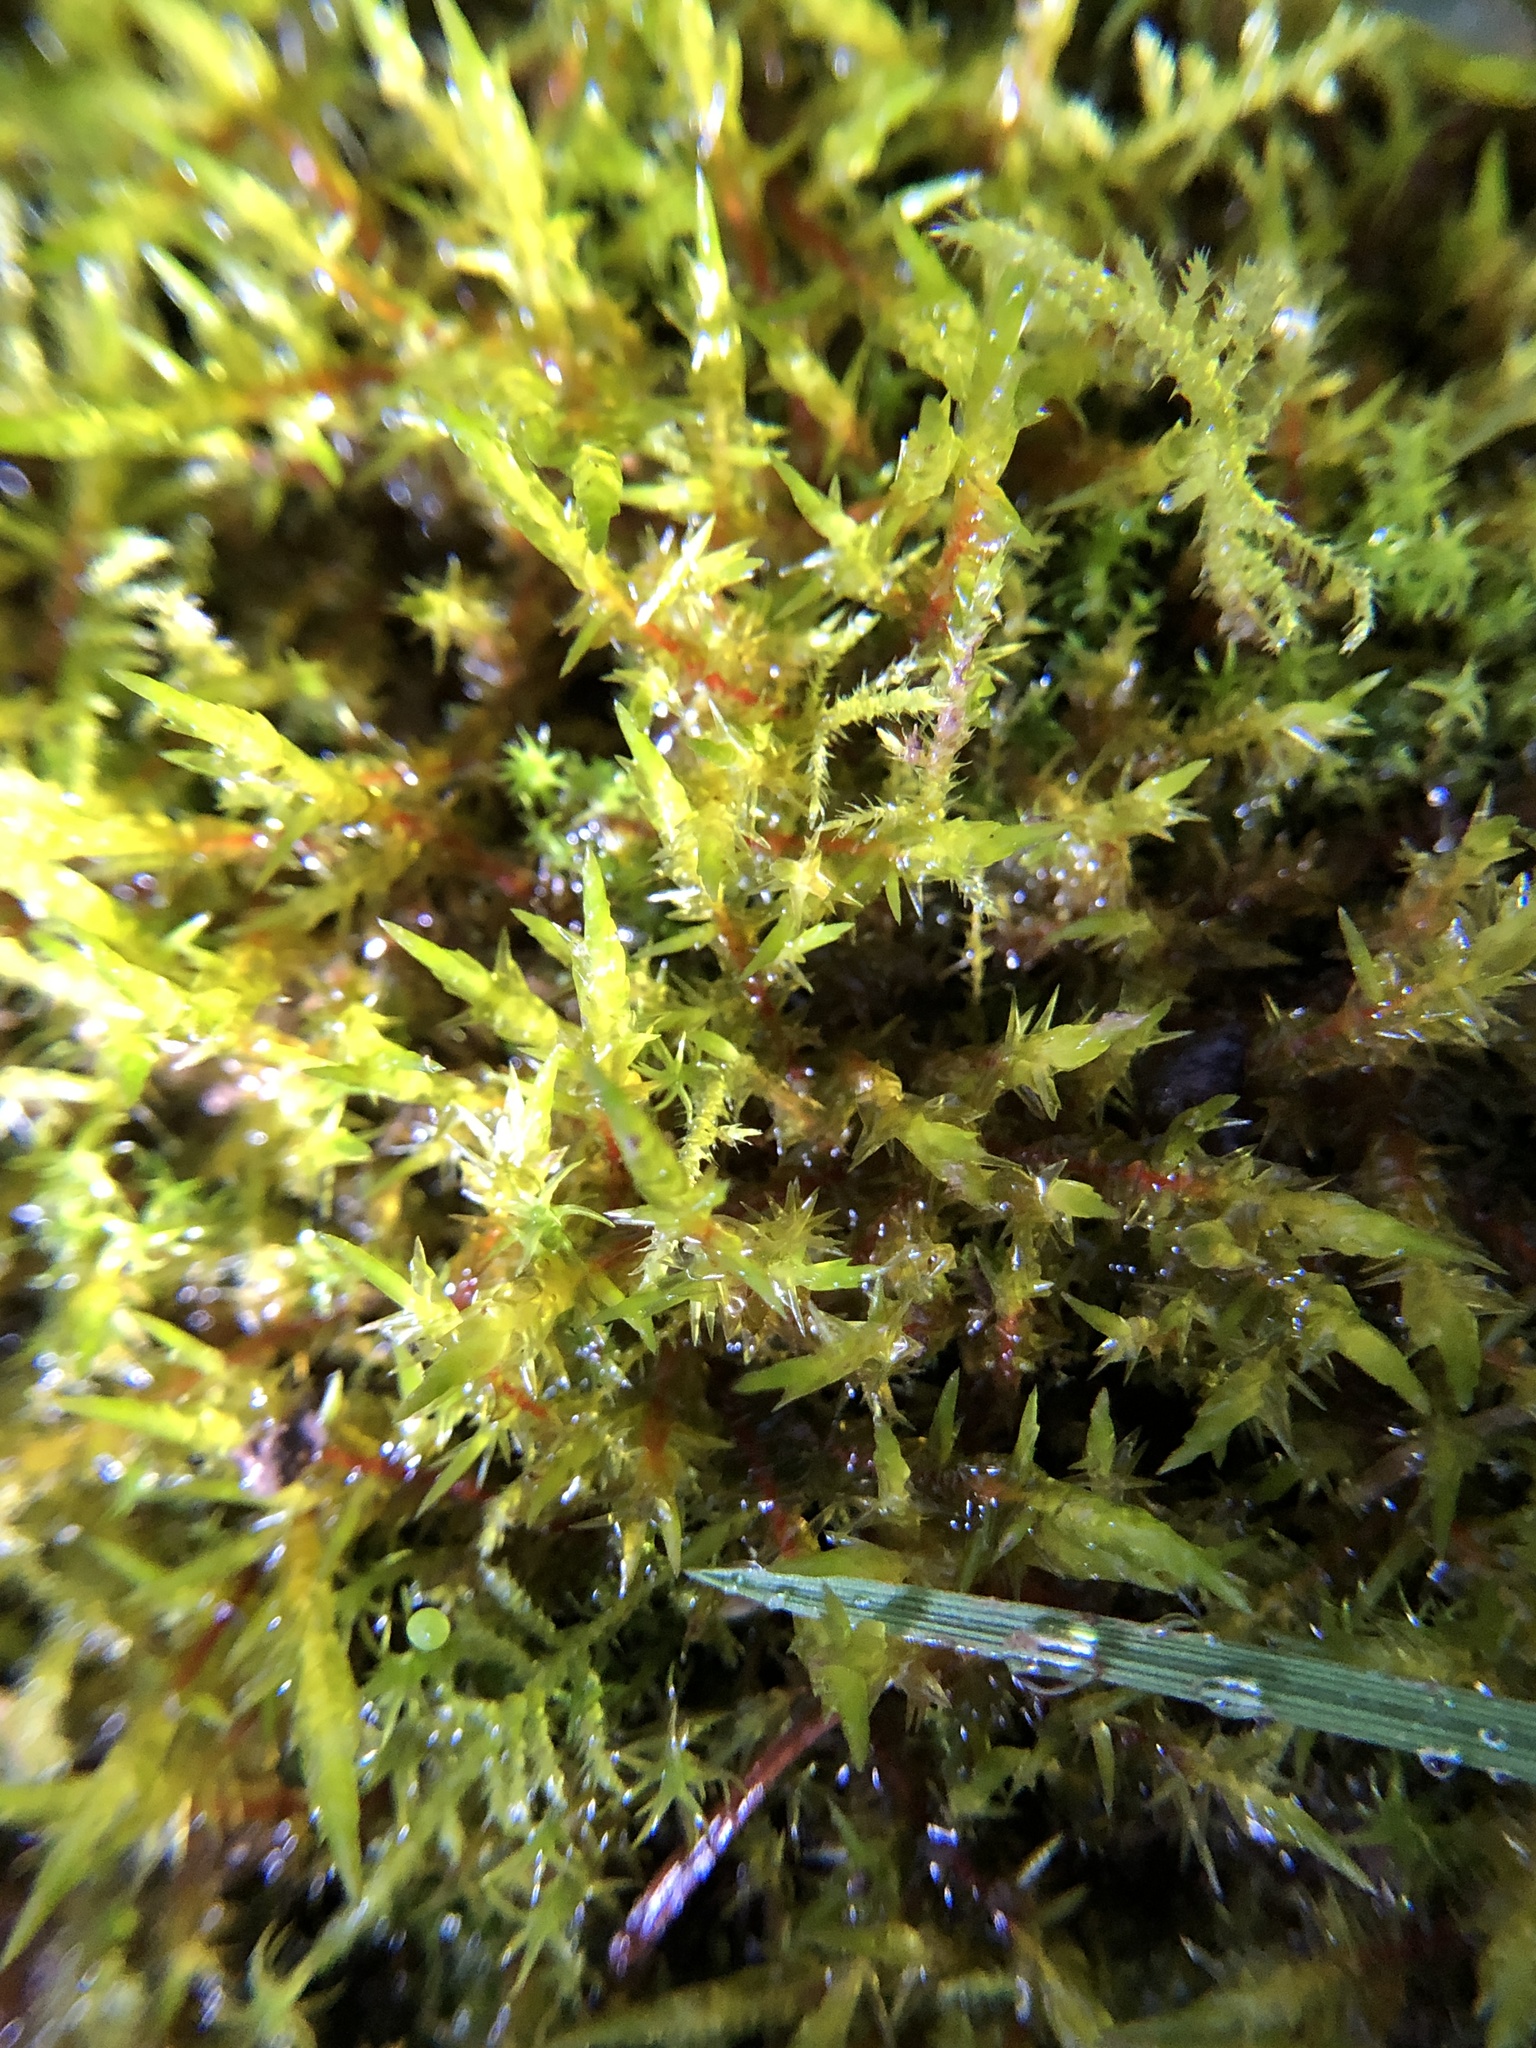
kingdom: Plantae
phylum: Bryophyta
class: Bryopsida
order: Hypnales
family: Pylaisiaceae
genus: Calliergonella
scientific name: Calliergonella cuspidata
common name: Common large wetland moss
